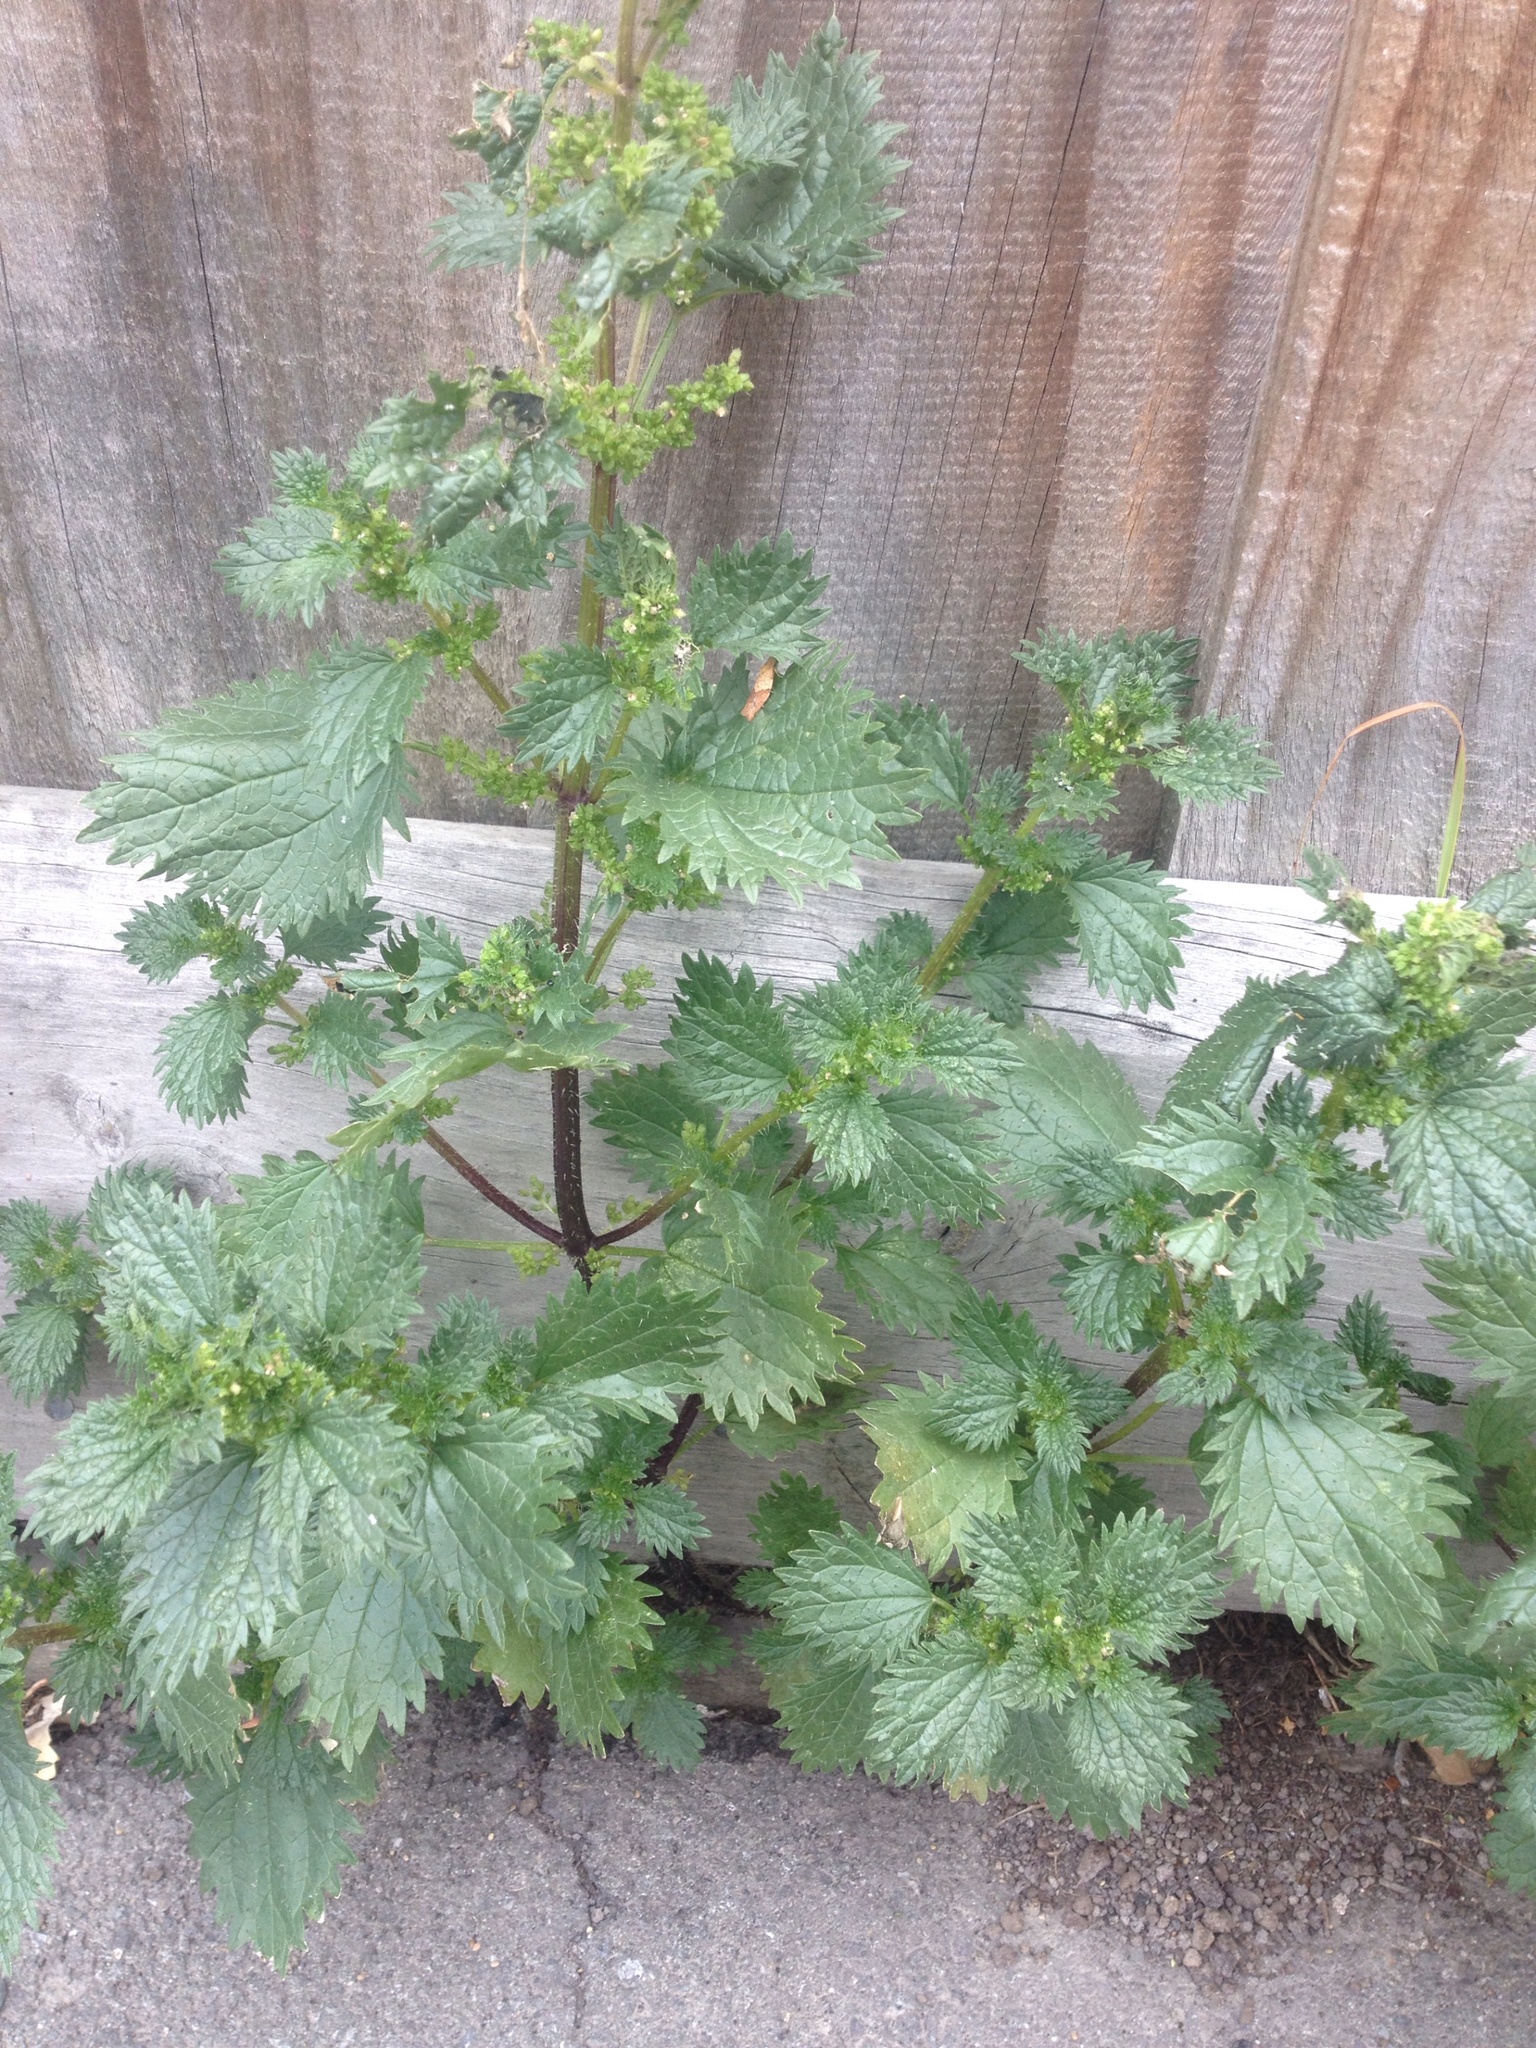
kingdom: Plantae
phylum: Tracheophyta
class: Magnoliopsida
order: Rosales
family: Urticaceae
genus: Urtica
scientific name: Urtica urens
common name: Dwarf nettle
